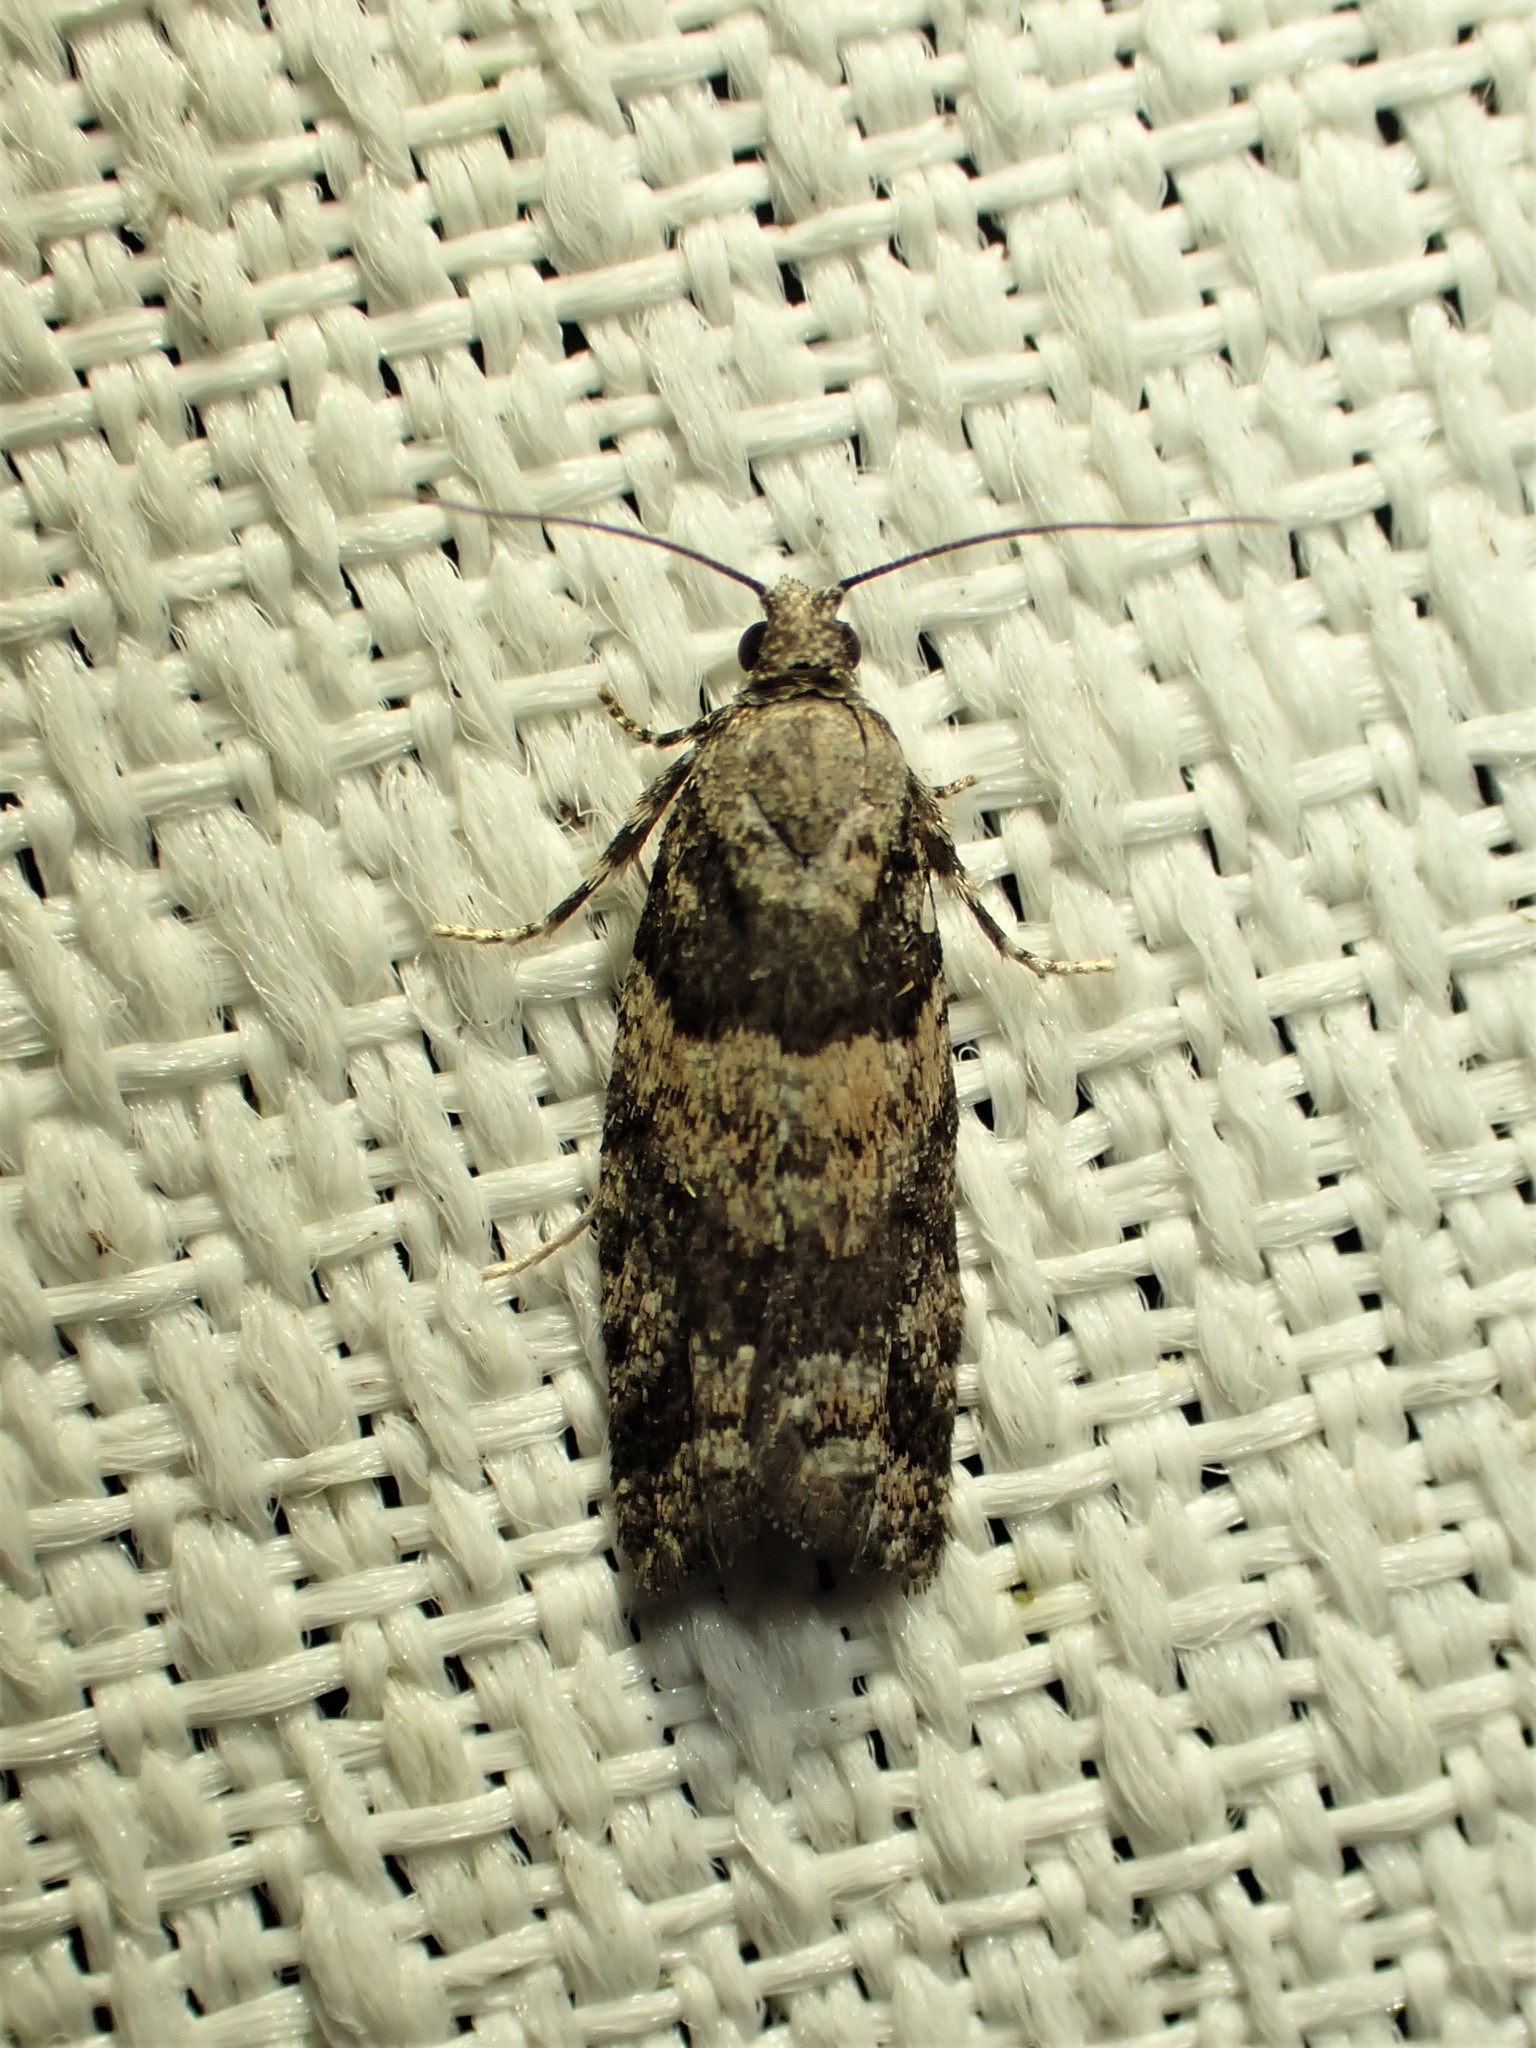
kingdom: Animalia
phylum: Arthropoda
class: Insecta
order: Lepidoptera
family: Tortricidae
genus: Epinotia
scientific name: Epinotia radicana
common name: Red-striped needleworm moth
